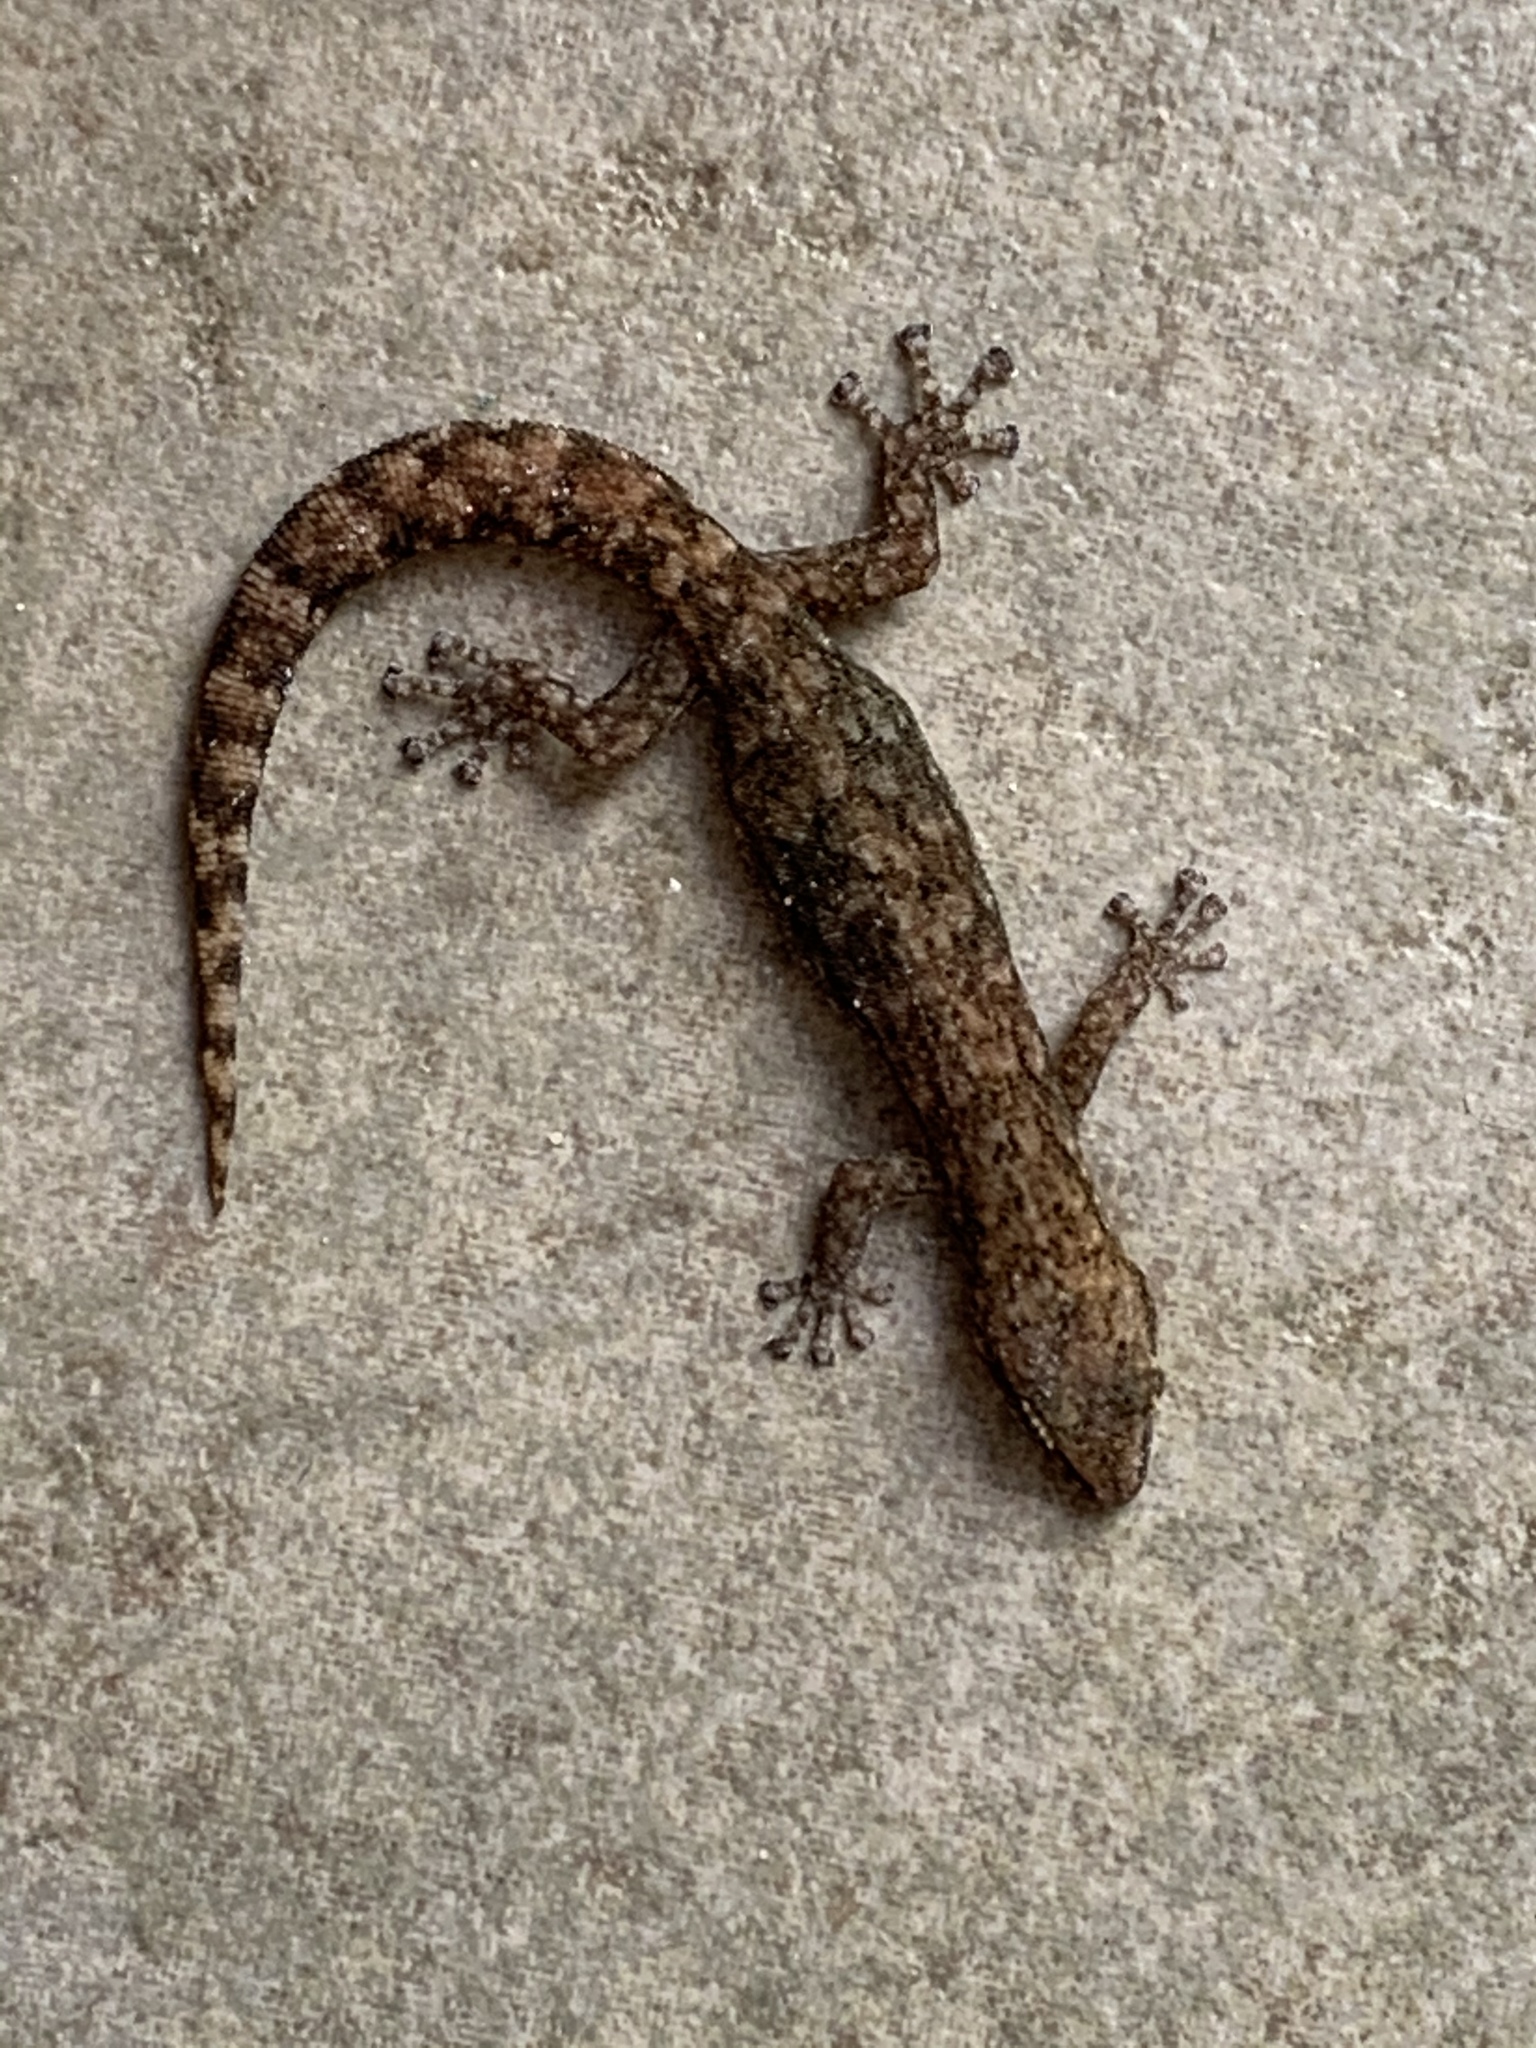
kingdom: Animalia
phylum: Chordata
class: Squamata
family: Gekkonidae
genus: Afrogecko
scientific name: Afrogecko porphyreus
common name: Marbled leaf-toed gecko
